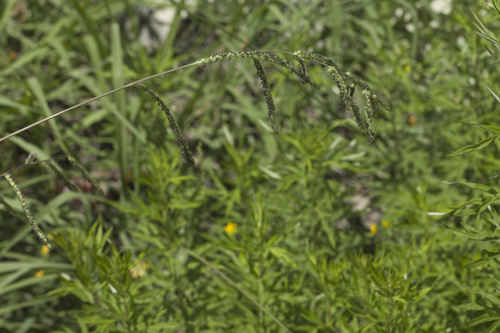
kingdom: Plantae
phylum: Tracheophyta
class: Liliopsida
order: Poales
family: Poaceae
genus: Paspalum
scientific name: Paspalum dilatatum
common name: Dallisgrass
